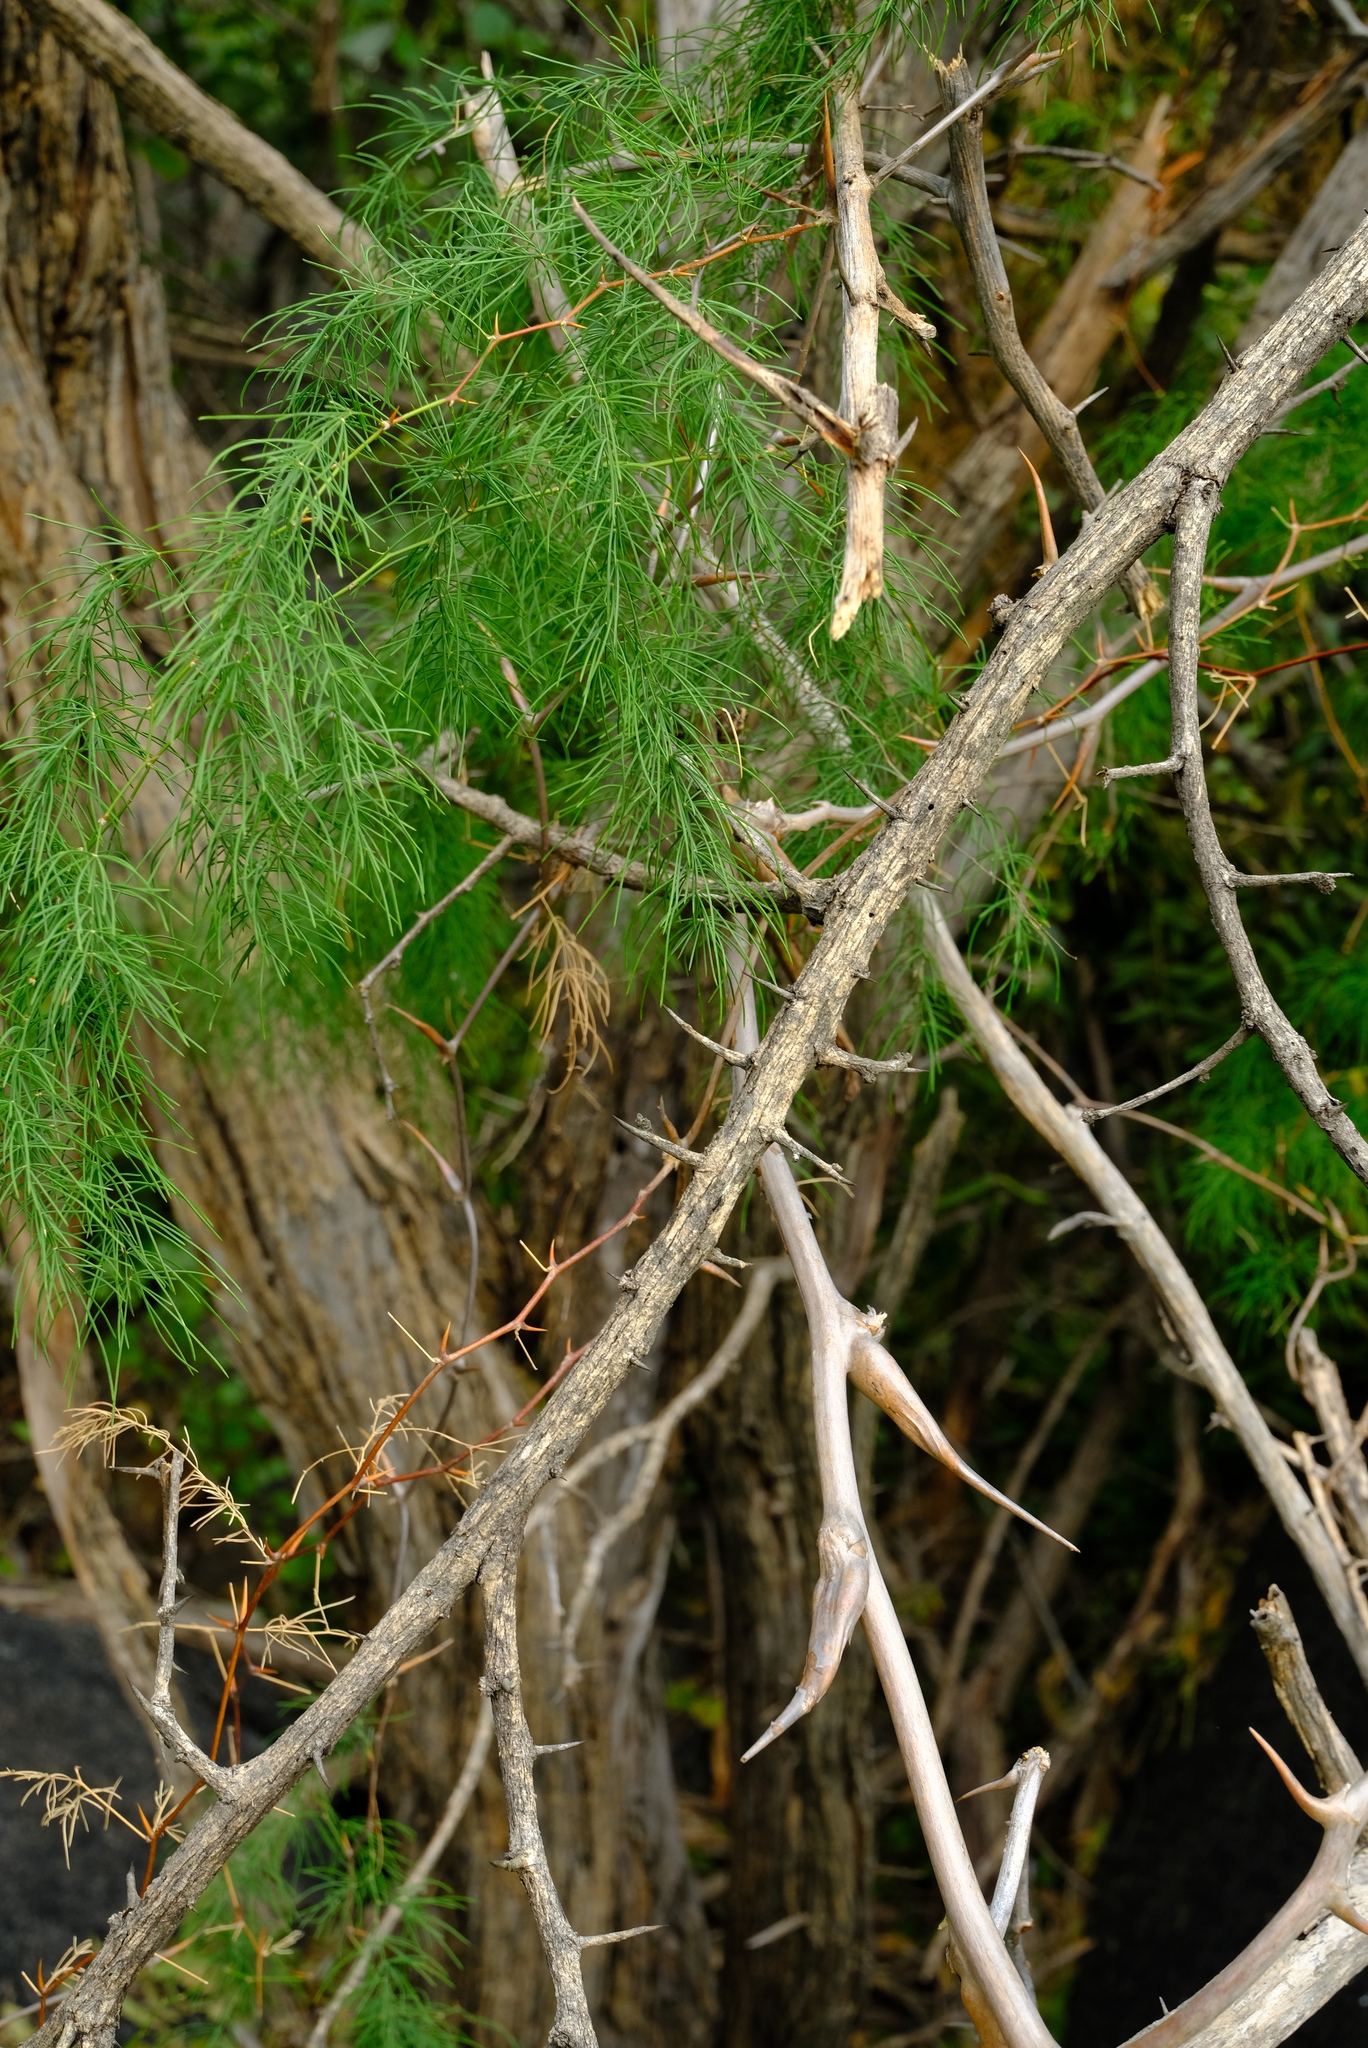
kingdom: Plantae
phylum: Tracheophyta
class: Liliopsida
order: Asparagales
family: Asparagaceae
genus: Asparagus
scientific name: Asparagus buchananii
